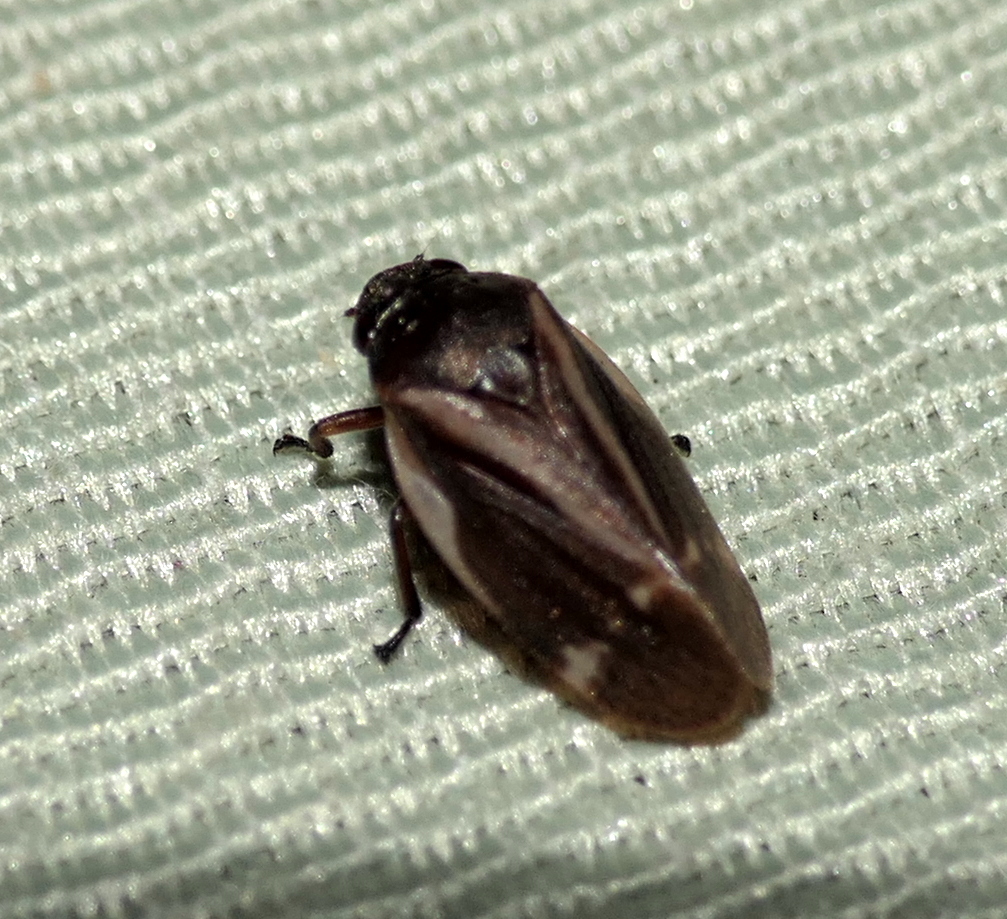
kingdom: Animalia
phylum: Arthropoda
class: Insecta
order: Hemiptera
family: Cercopidae
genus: Deois
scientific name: Deois incompleta
